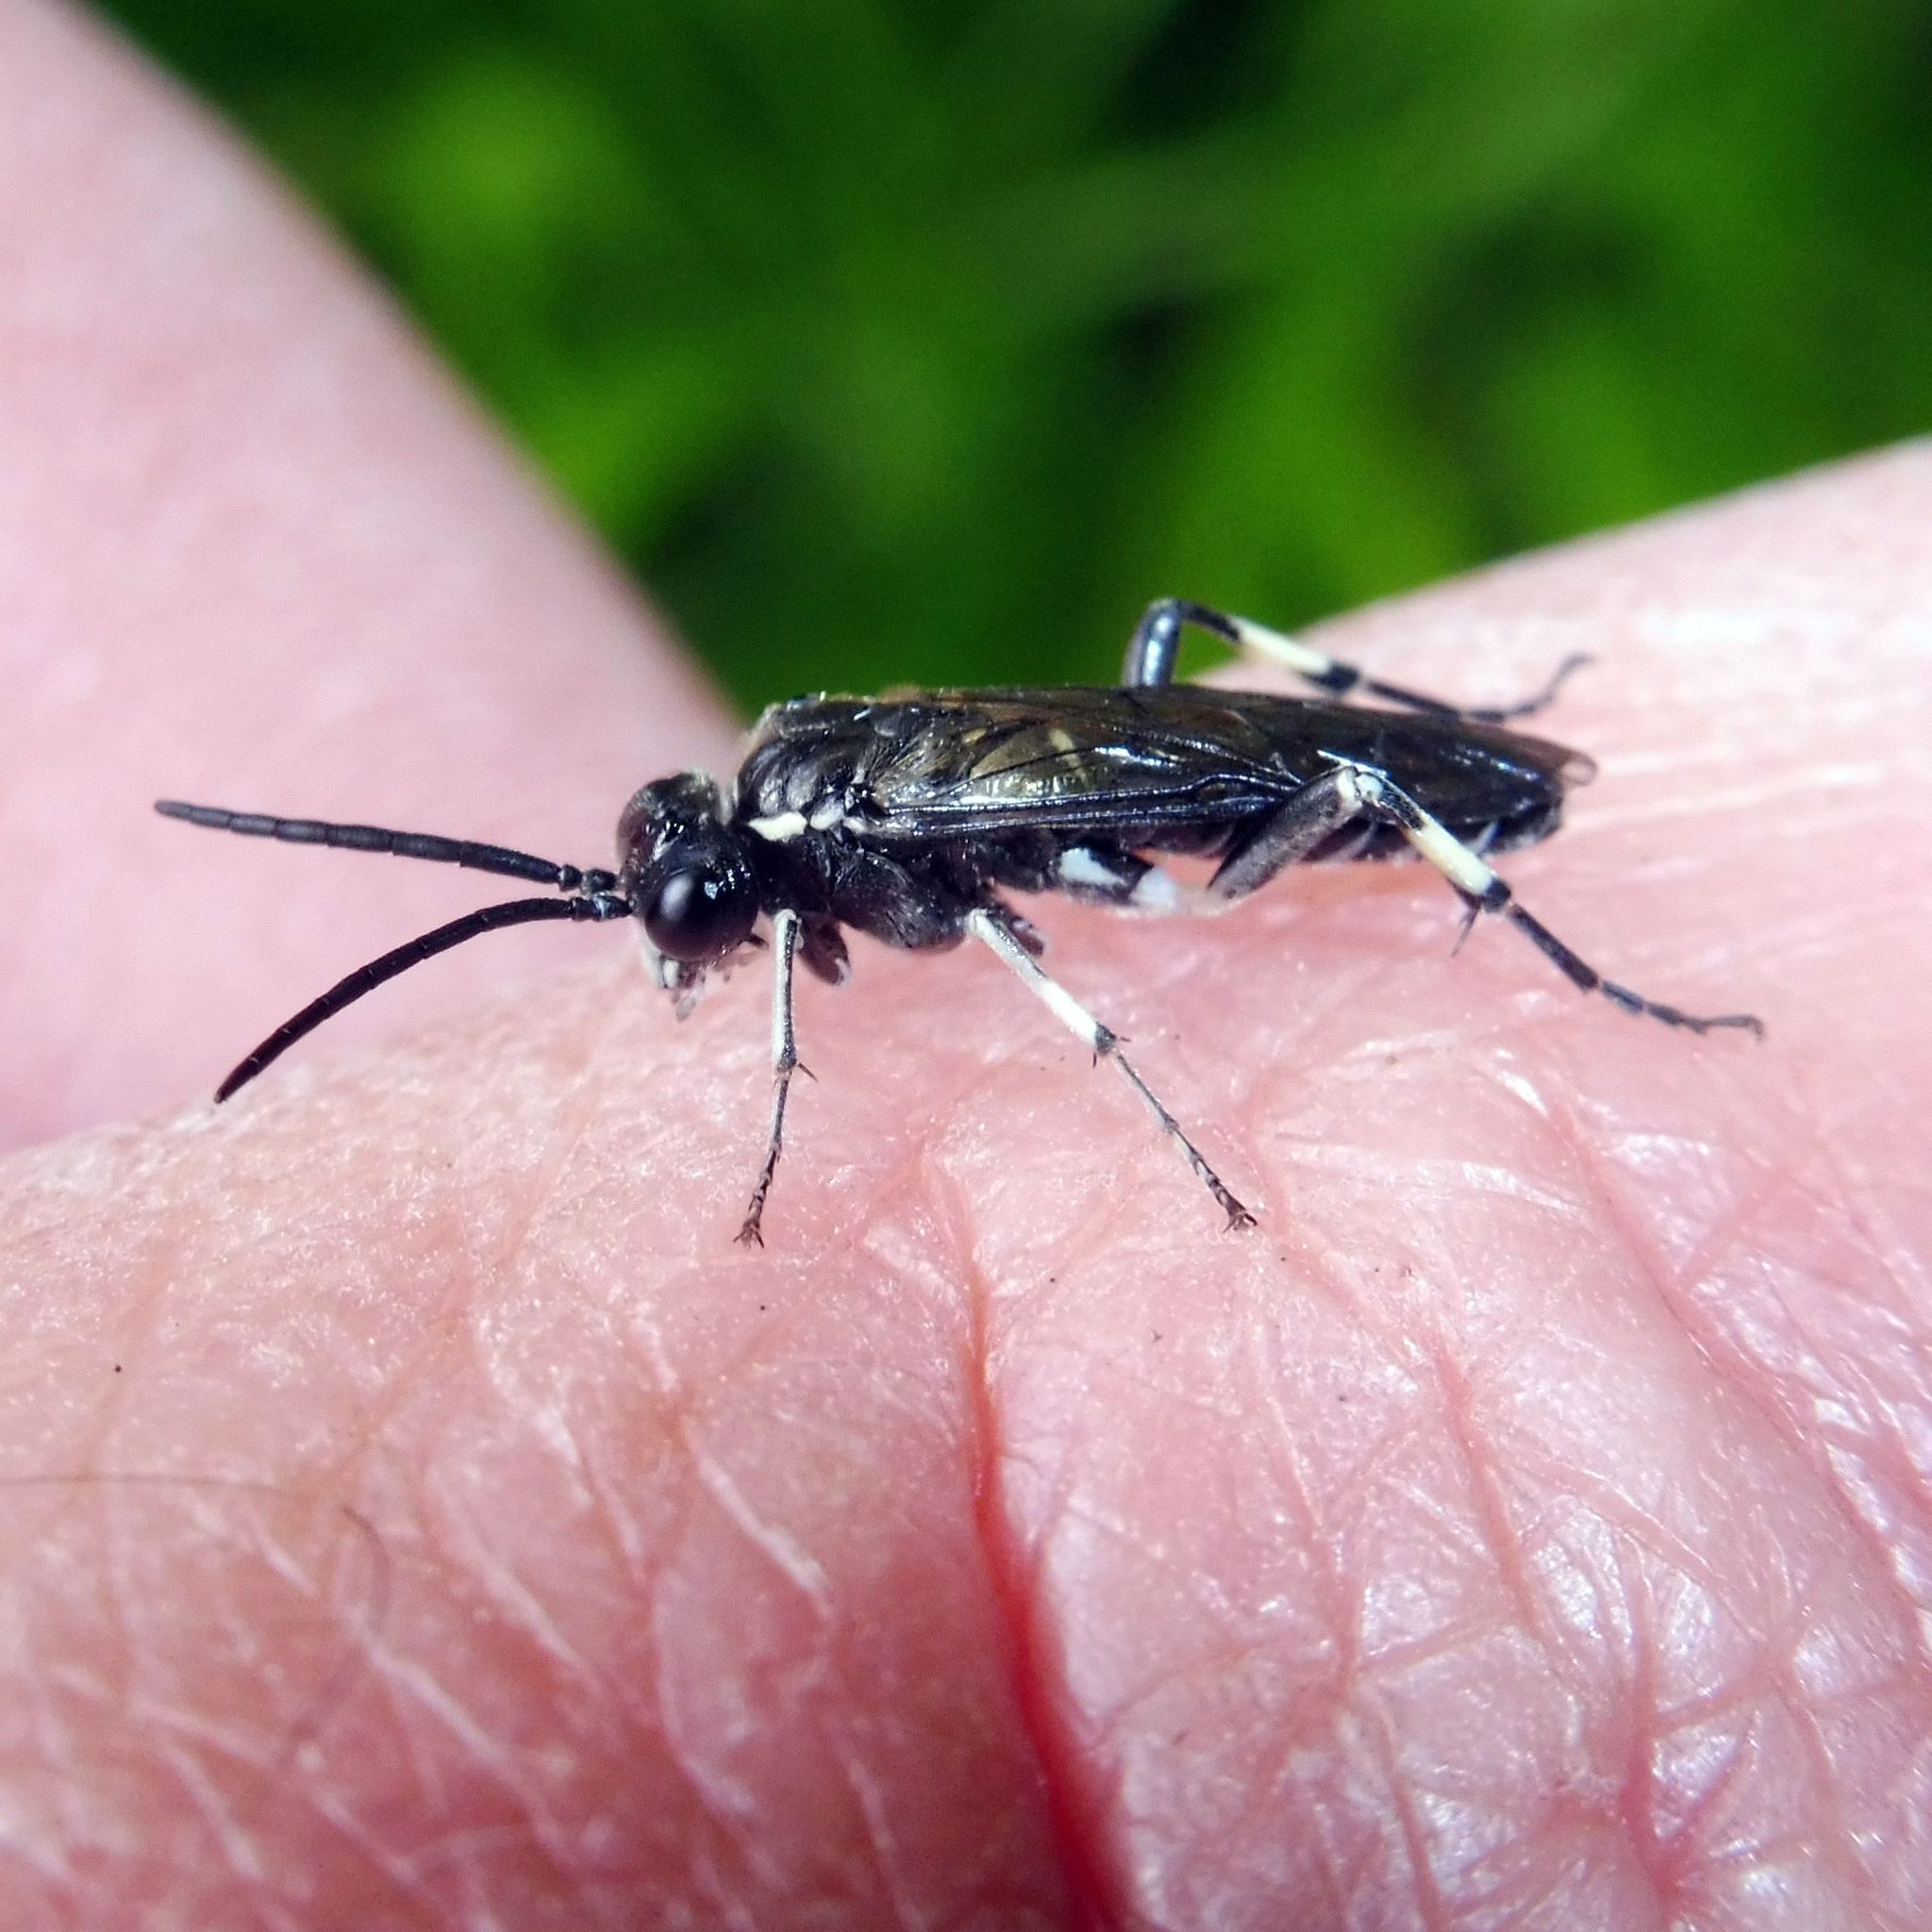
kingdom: Animalia
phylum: Arthropoda
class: Insecta
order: Hymenoptera
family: Tenthredinidae
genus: Macrophya
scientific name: Macrophya alboannulata
